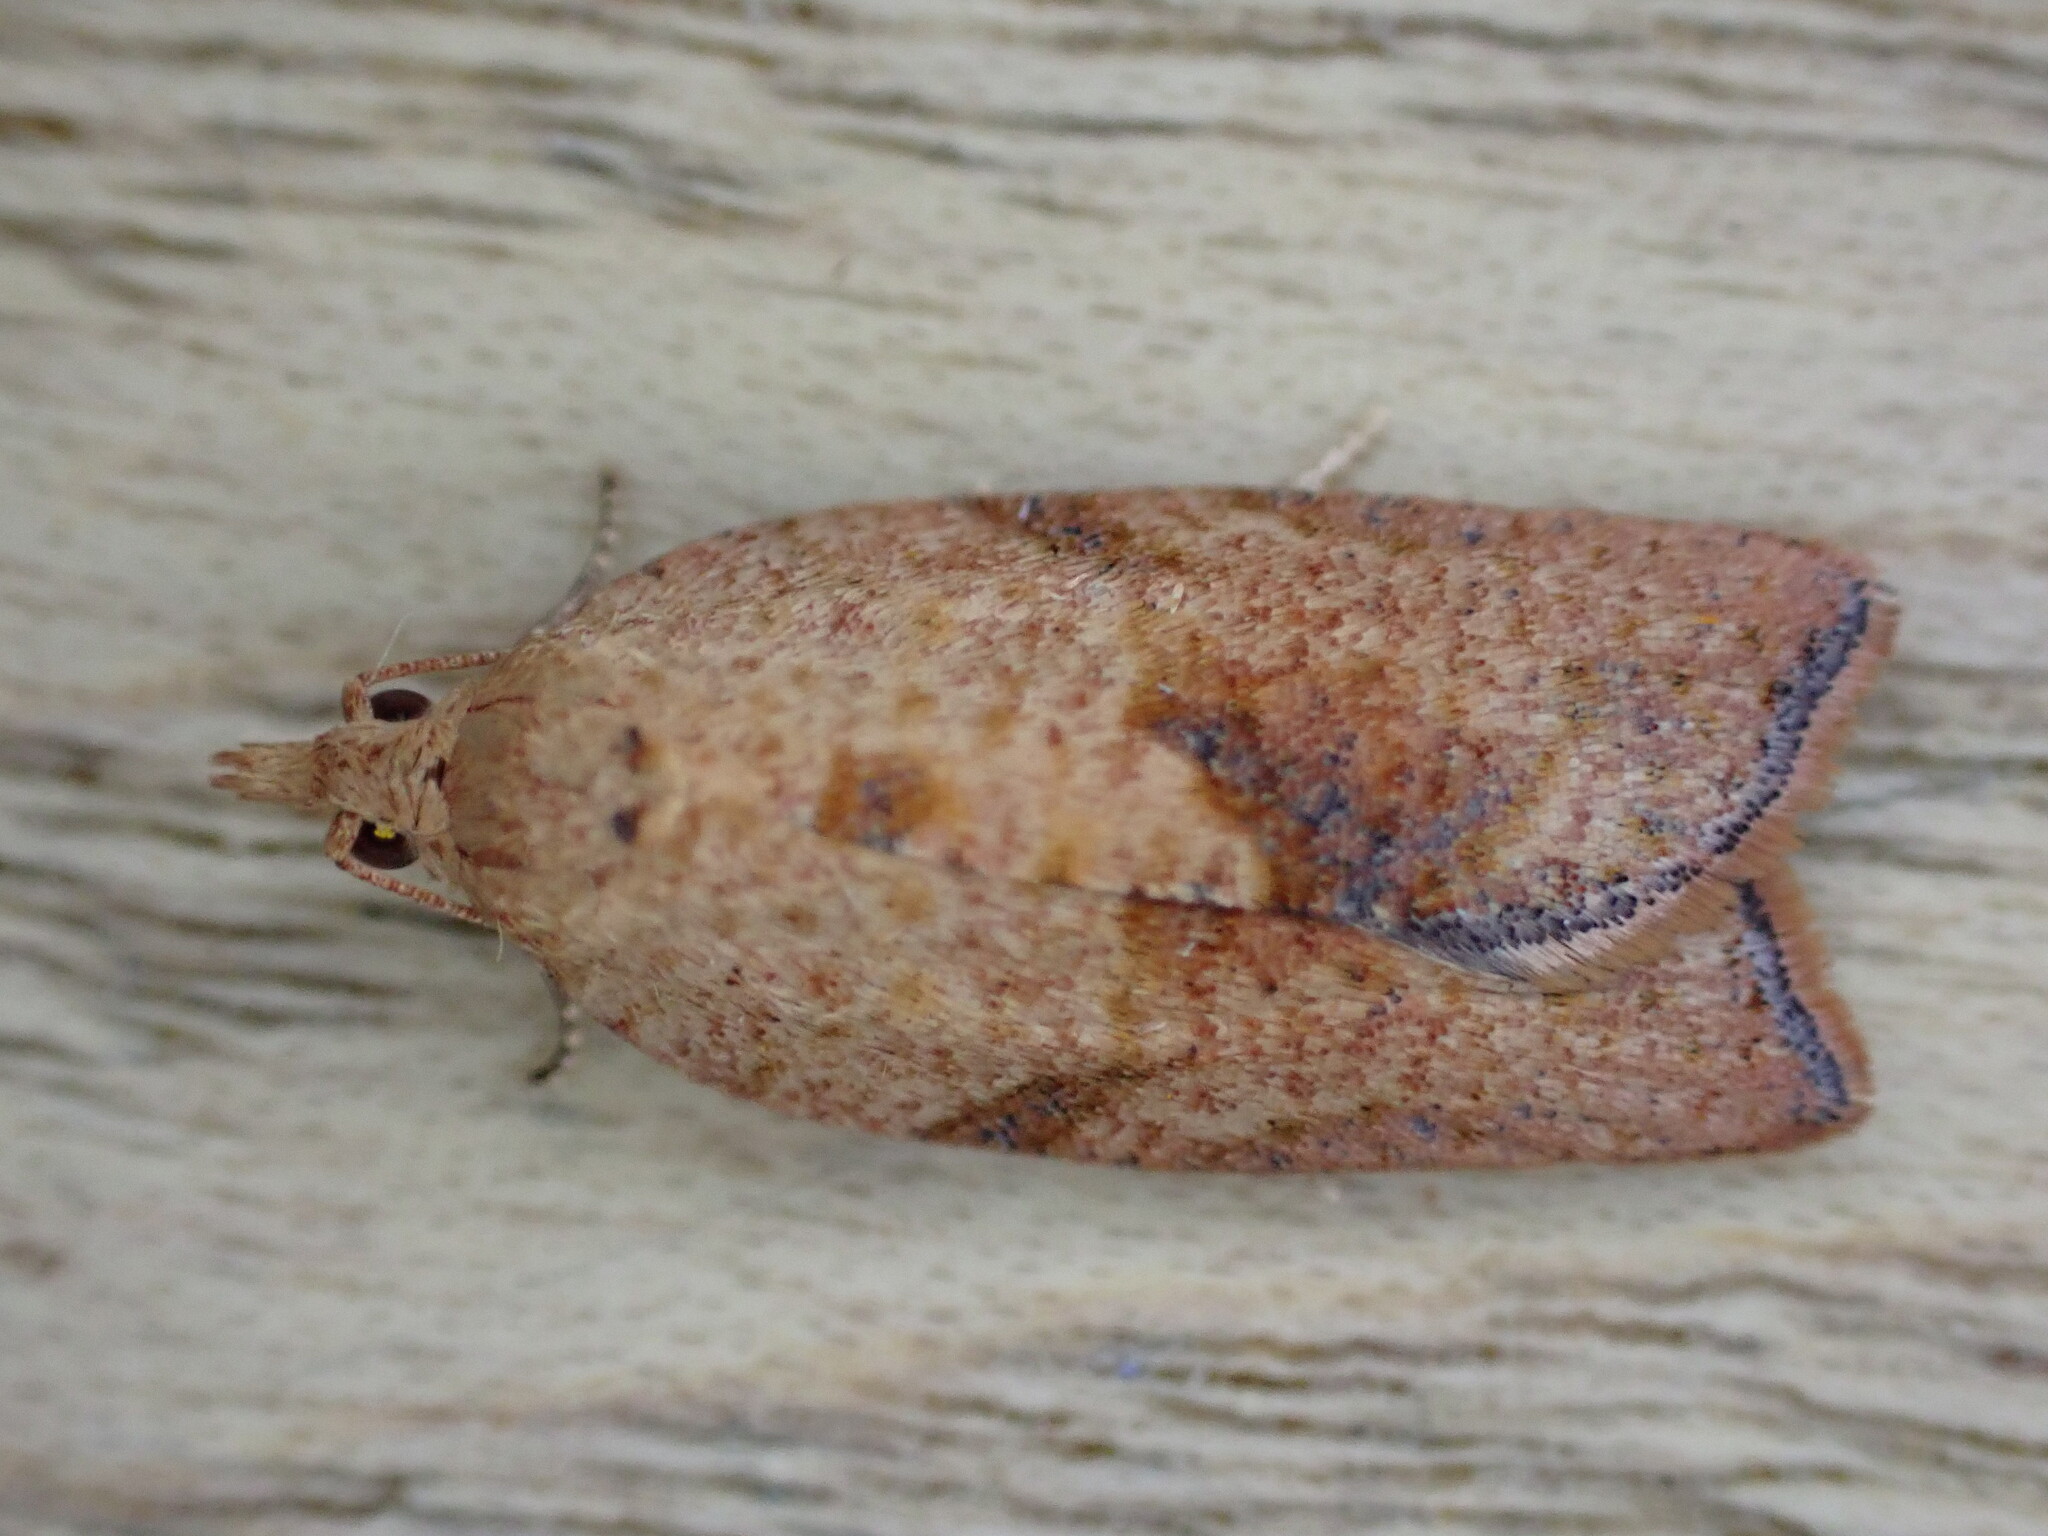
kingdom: Animalia
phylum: Arthropoda
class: Insecta
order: Lepidoptera
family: Tortricidae
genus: Epiphyas
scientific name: Epiphyas postvittana
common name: Light brown apple moth
